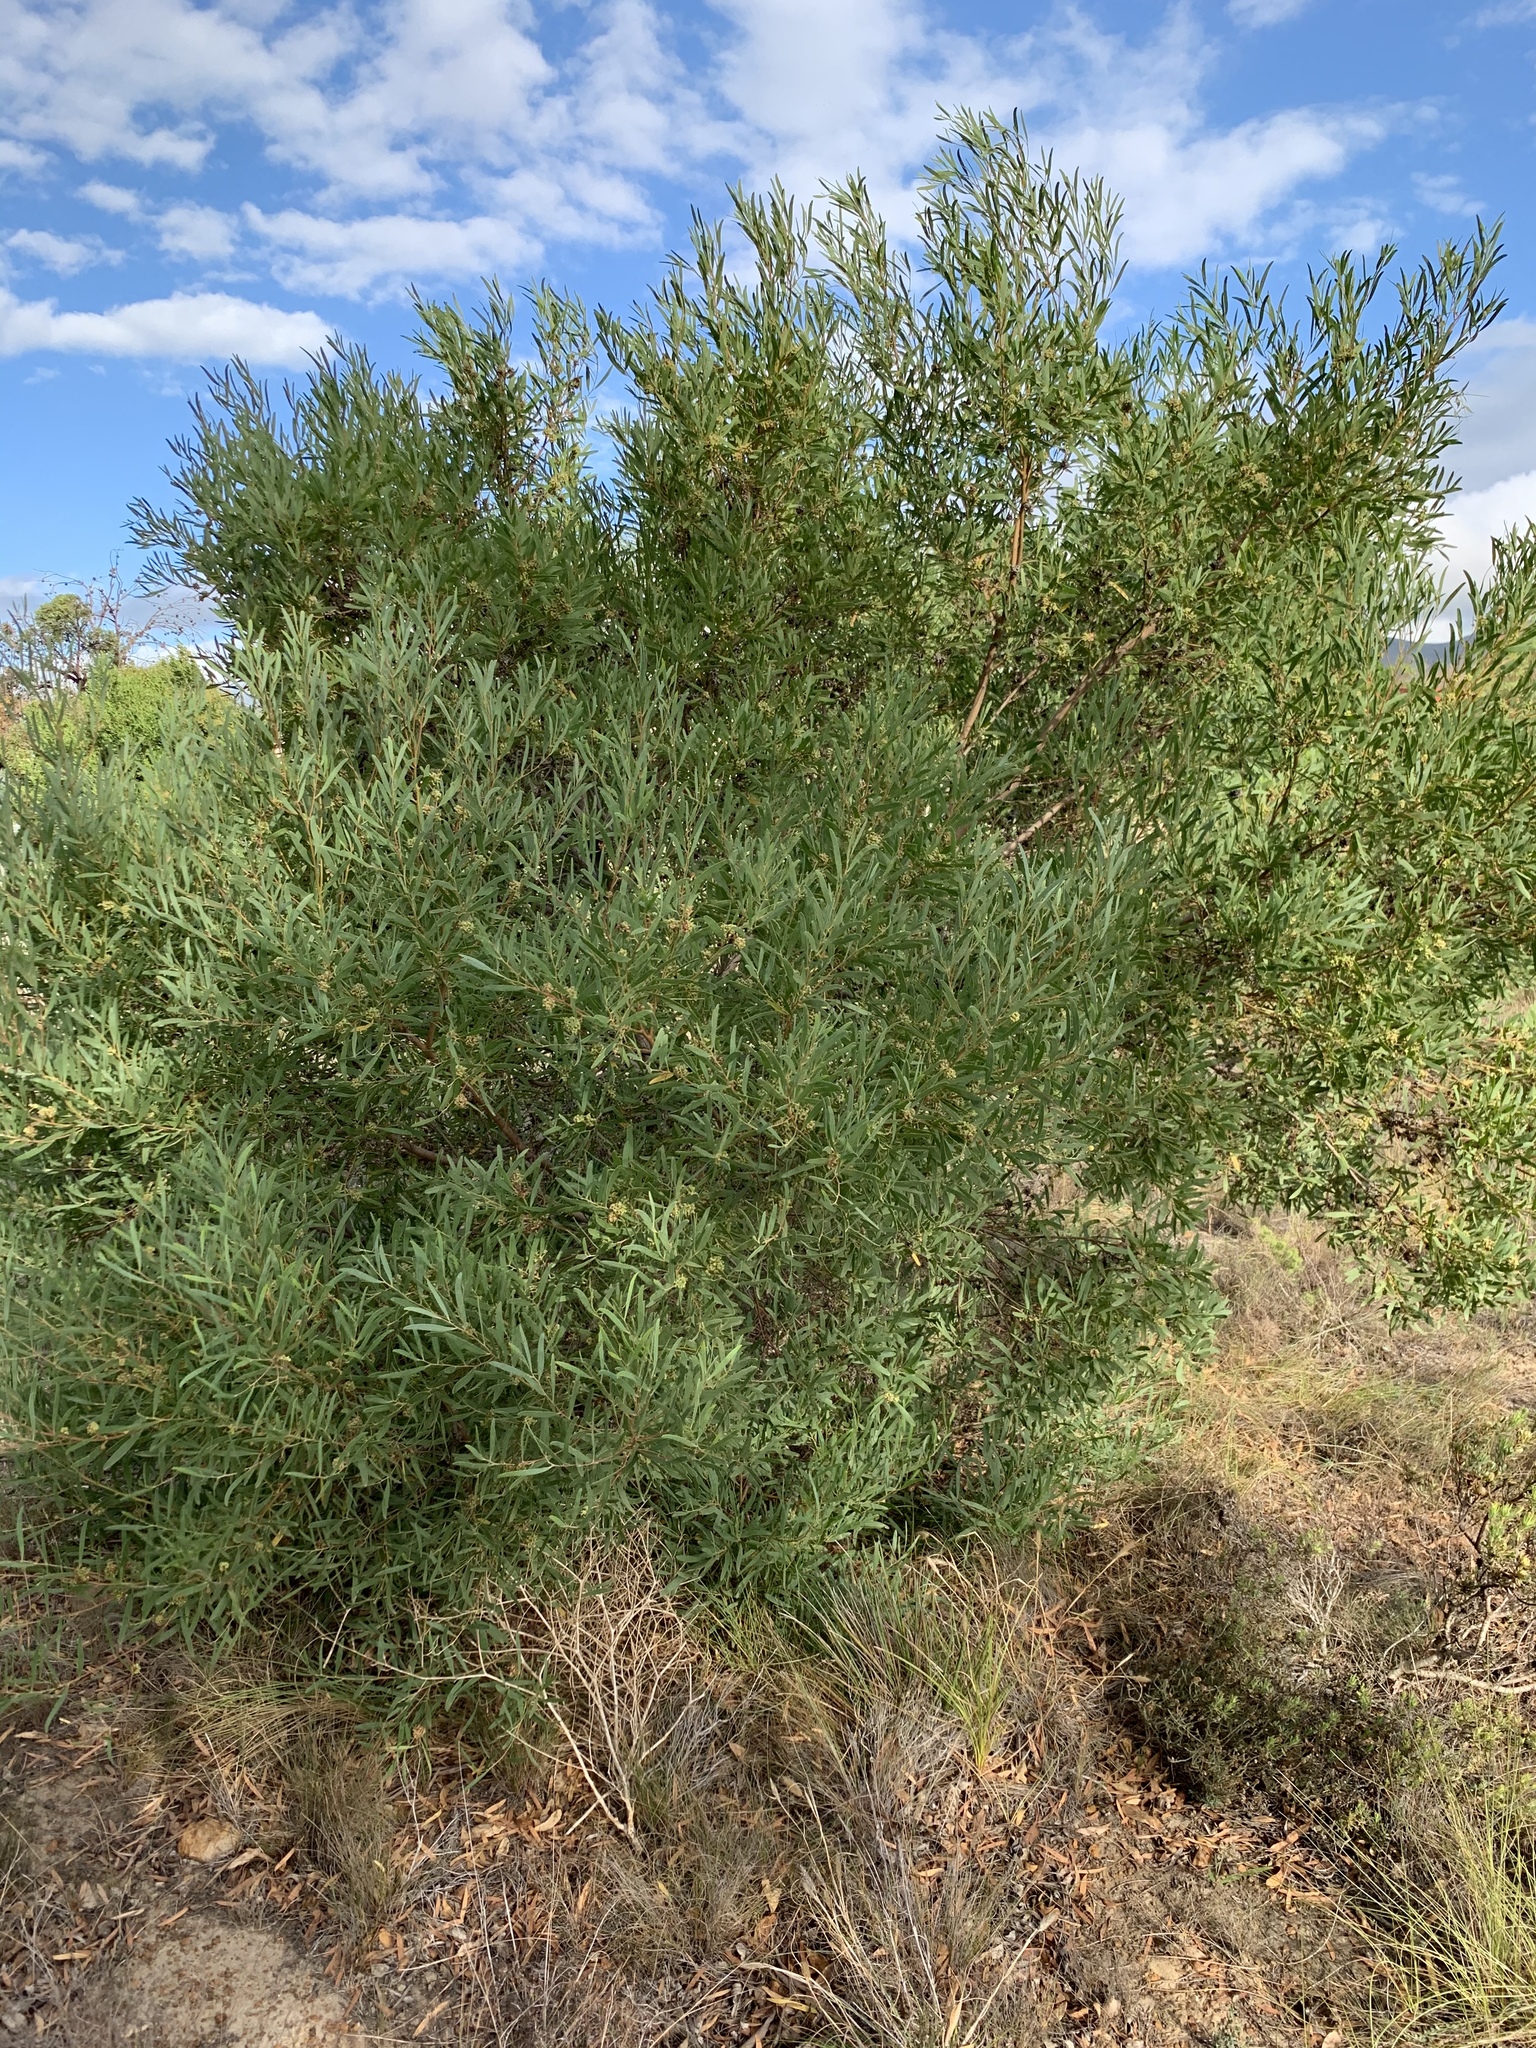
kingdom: Plantae
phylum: Tracheophyta
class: Magnoliopsida
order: Fabales
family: Fabaceae
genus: Acacia
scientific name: Acacia cyclops
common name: Coastal wattle
